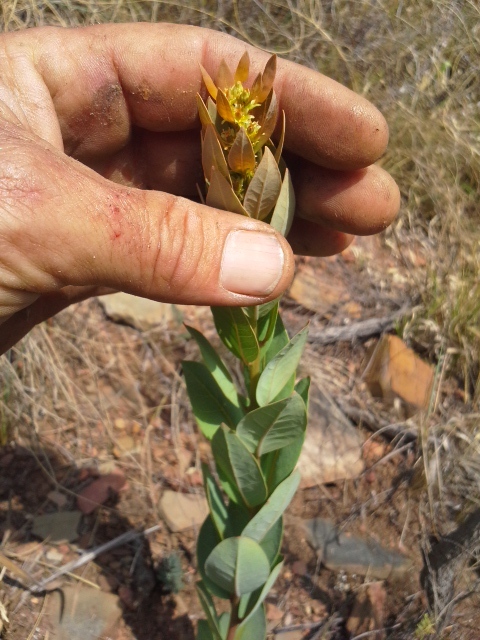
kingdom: Plantae
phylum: Tracheophyta
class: Magnoliopsida
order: Malpighiales
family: Peraceae
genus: Clutia
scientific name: Clutia monticola
